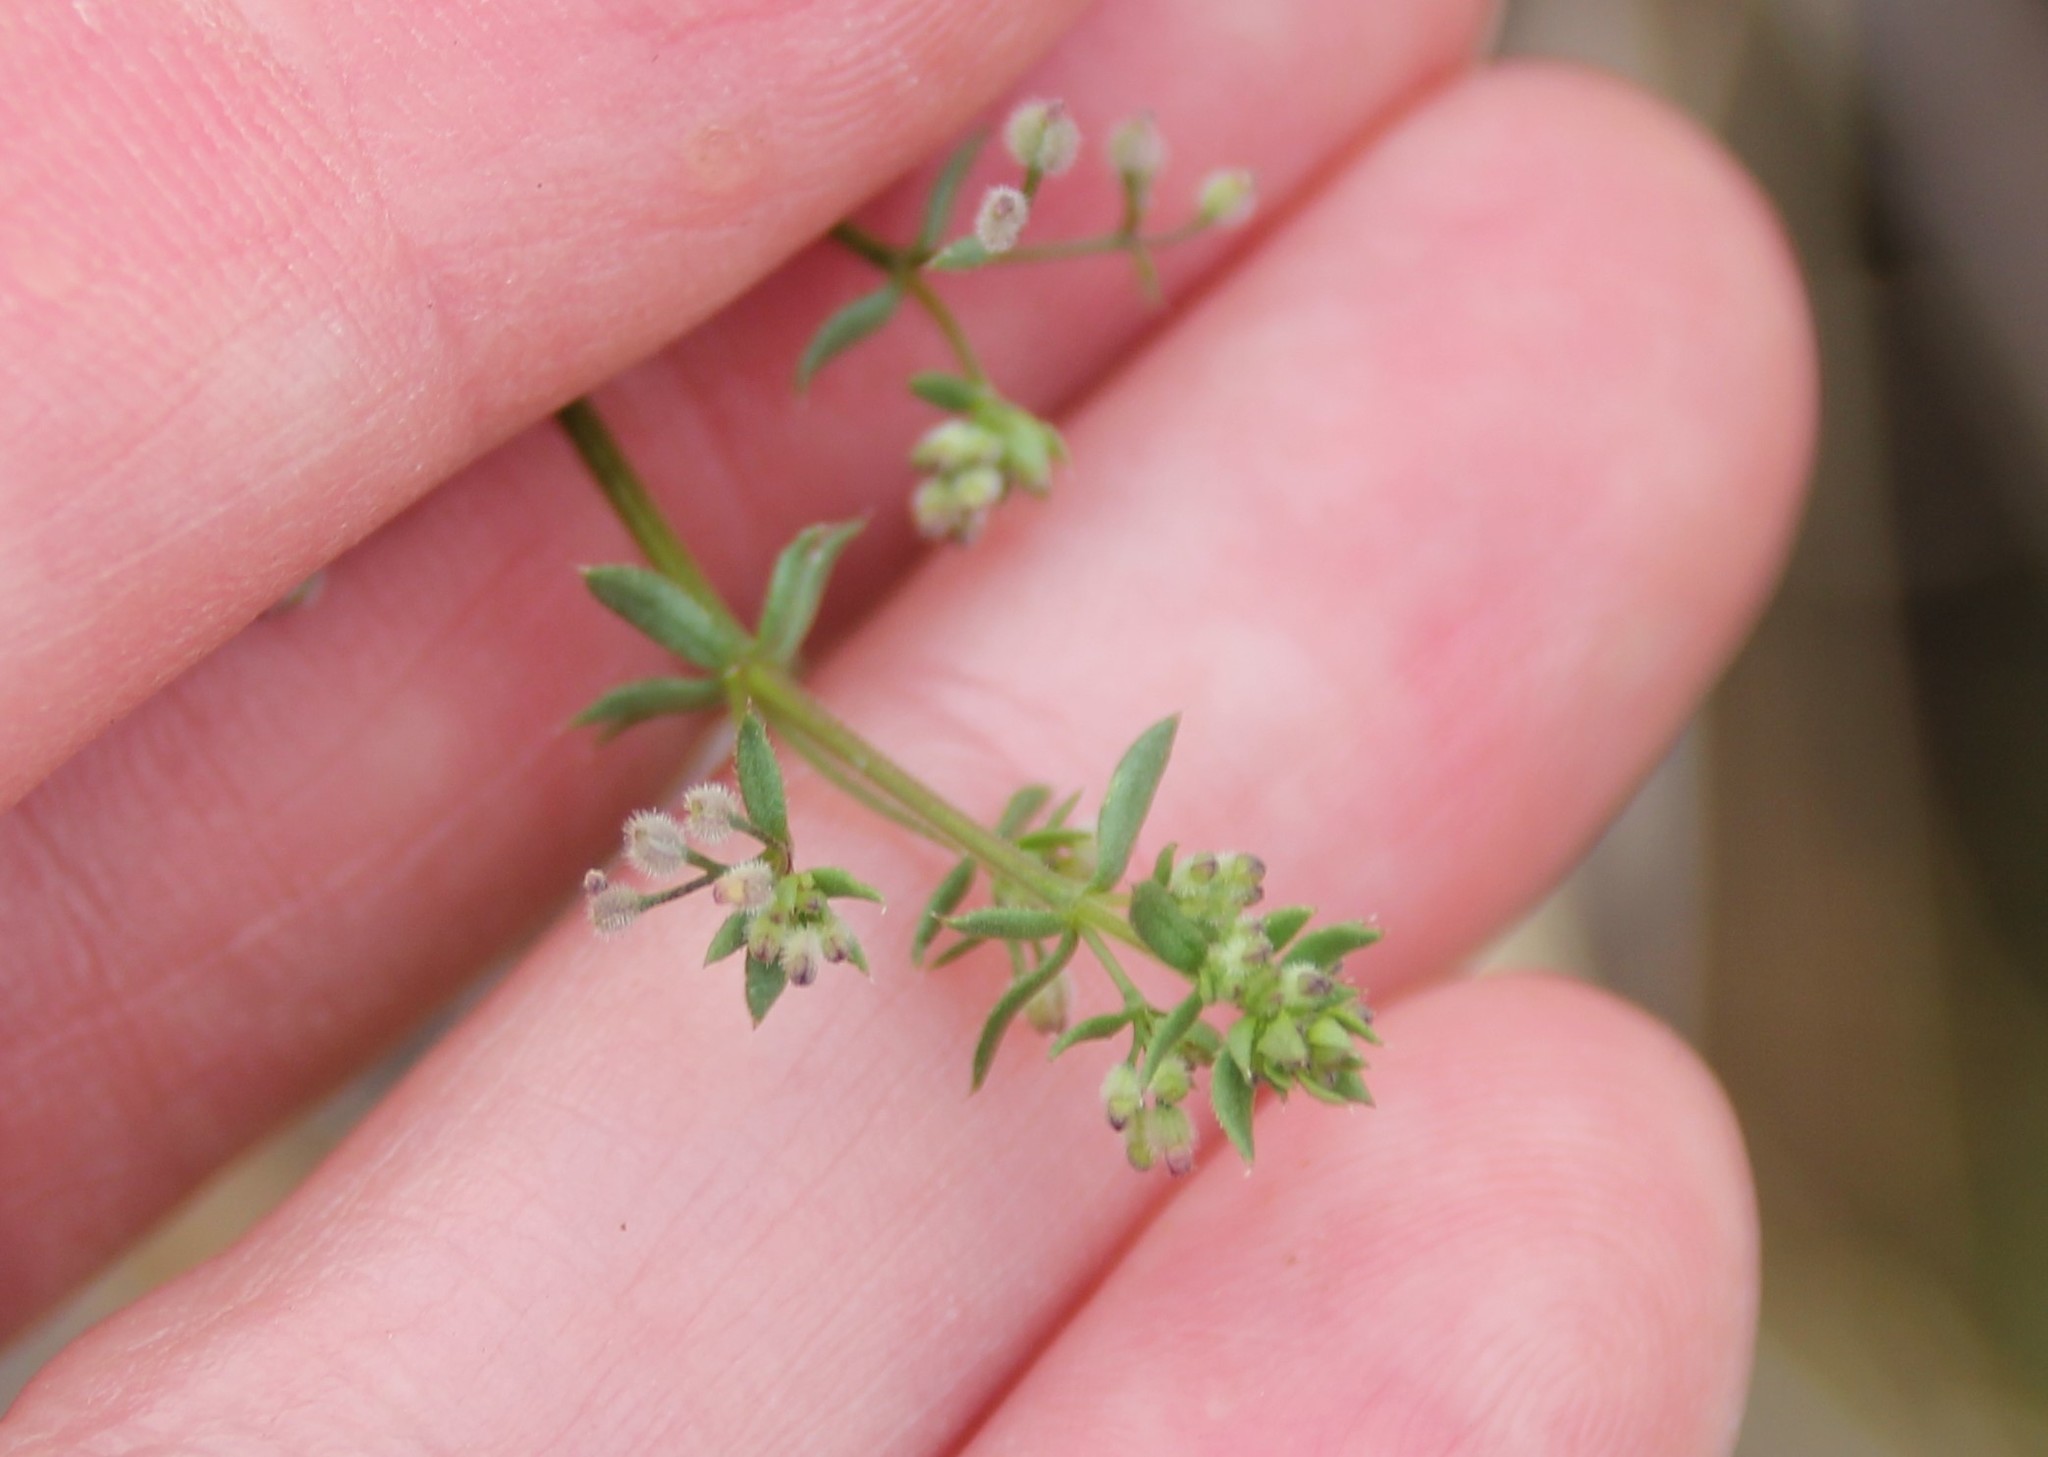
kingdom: Plantae
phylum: Tracheophyta
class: Magnoliopsida
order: Gentianales
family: Rubiaceae
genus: Galium
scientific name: Galium parisiense
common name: Wall bedstraw
